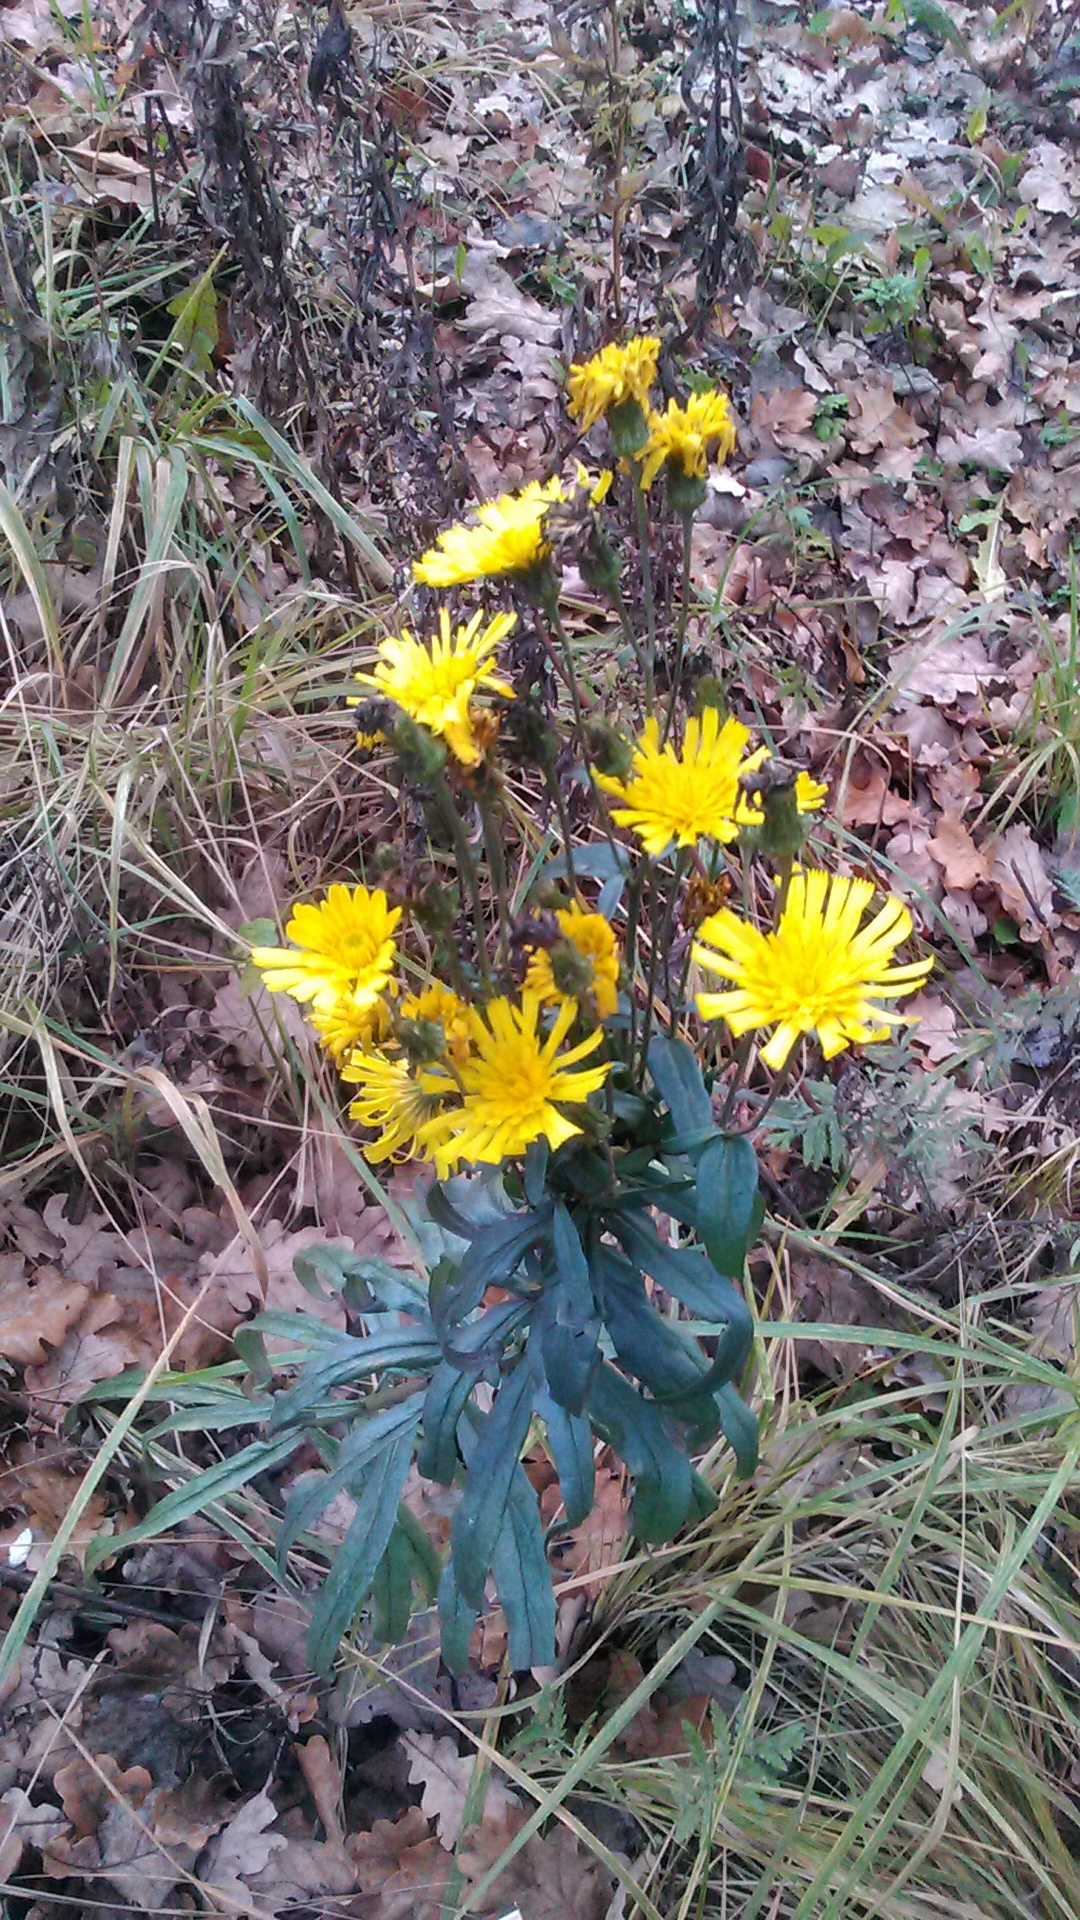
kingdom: Plantae
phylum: Tracheophyta
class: Magnoliopsida
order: Asterales
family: Asteraceae
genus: Hieracium
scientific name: Hieracium umbellatum
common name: Northern hawkweed
